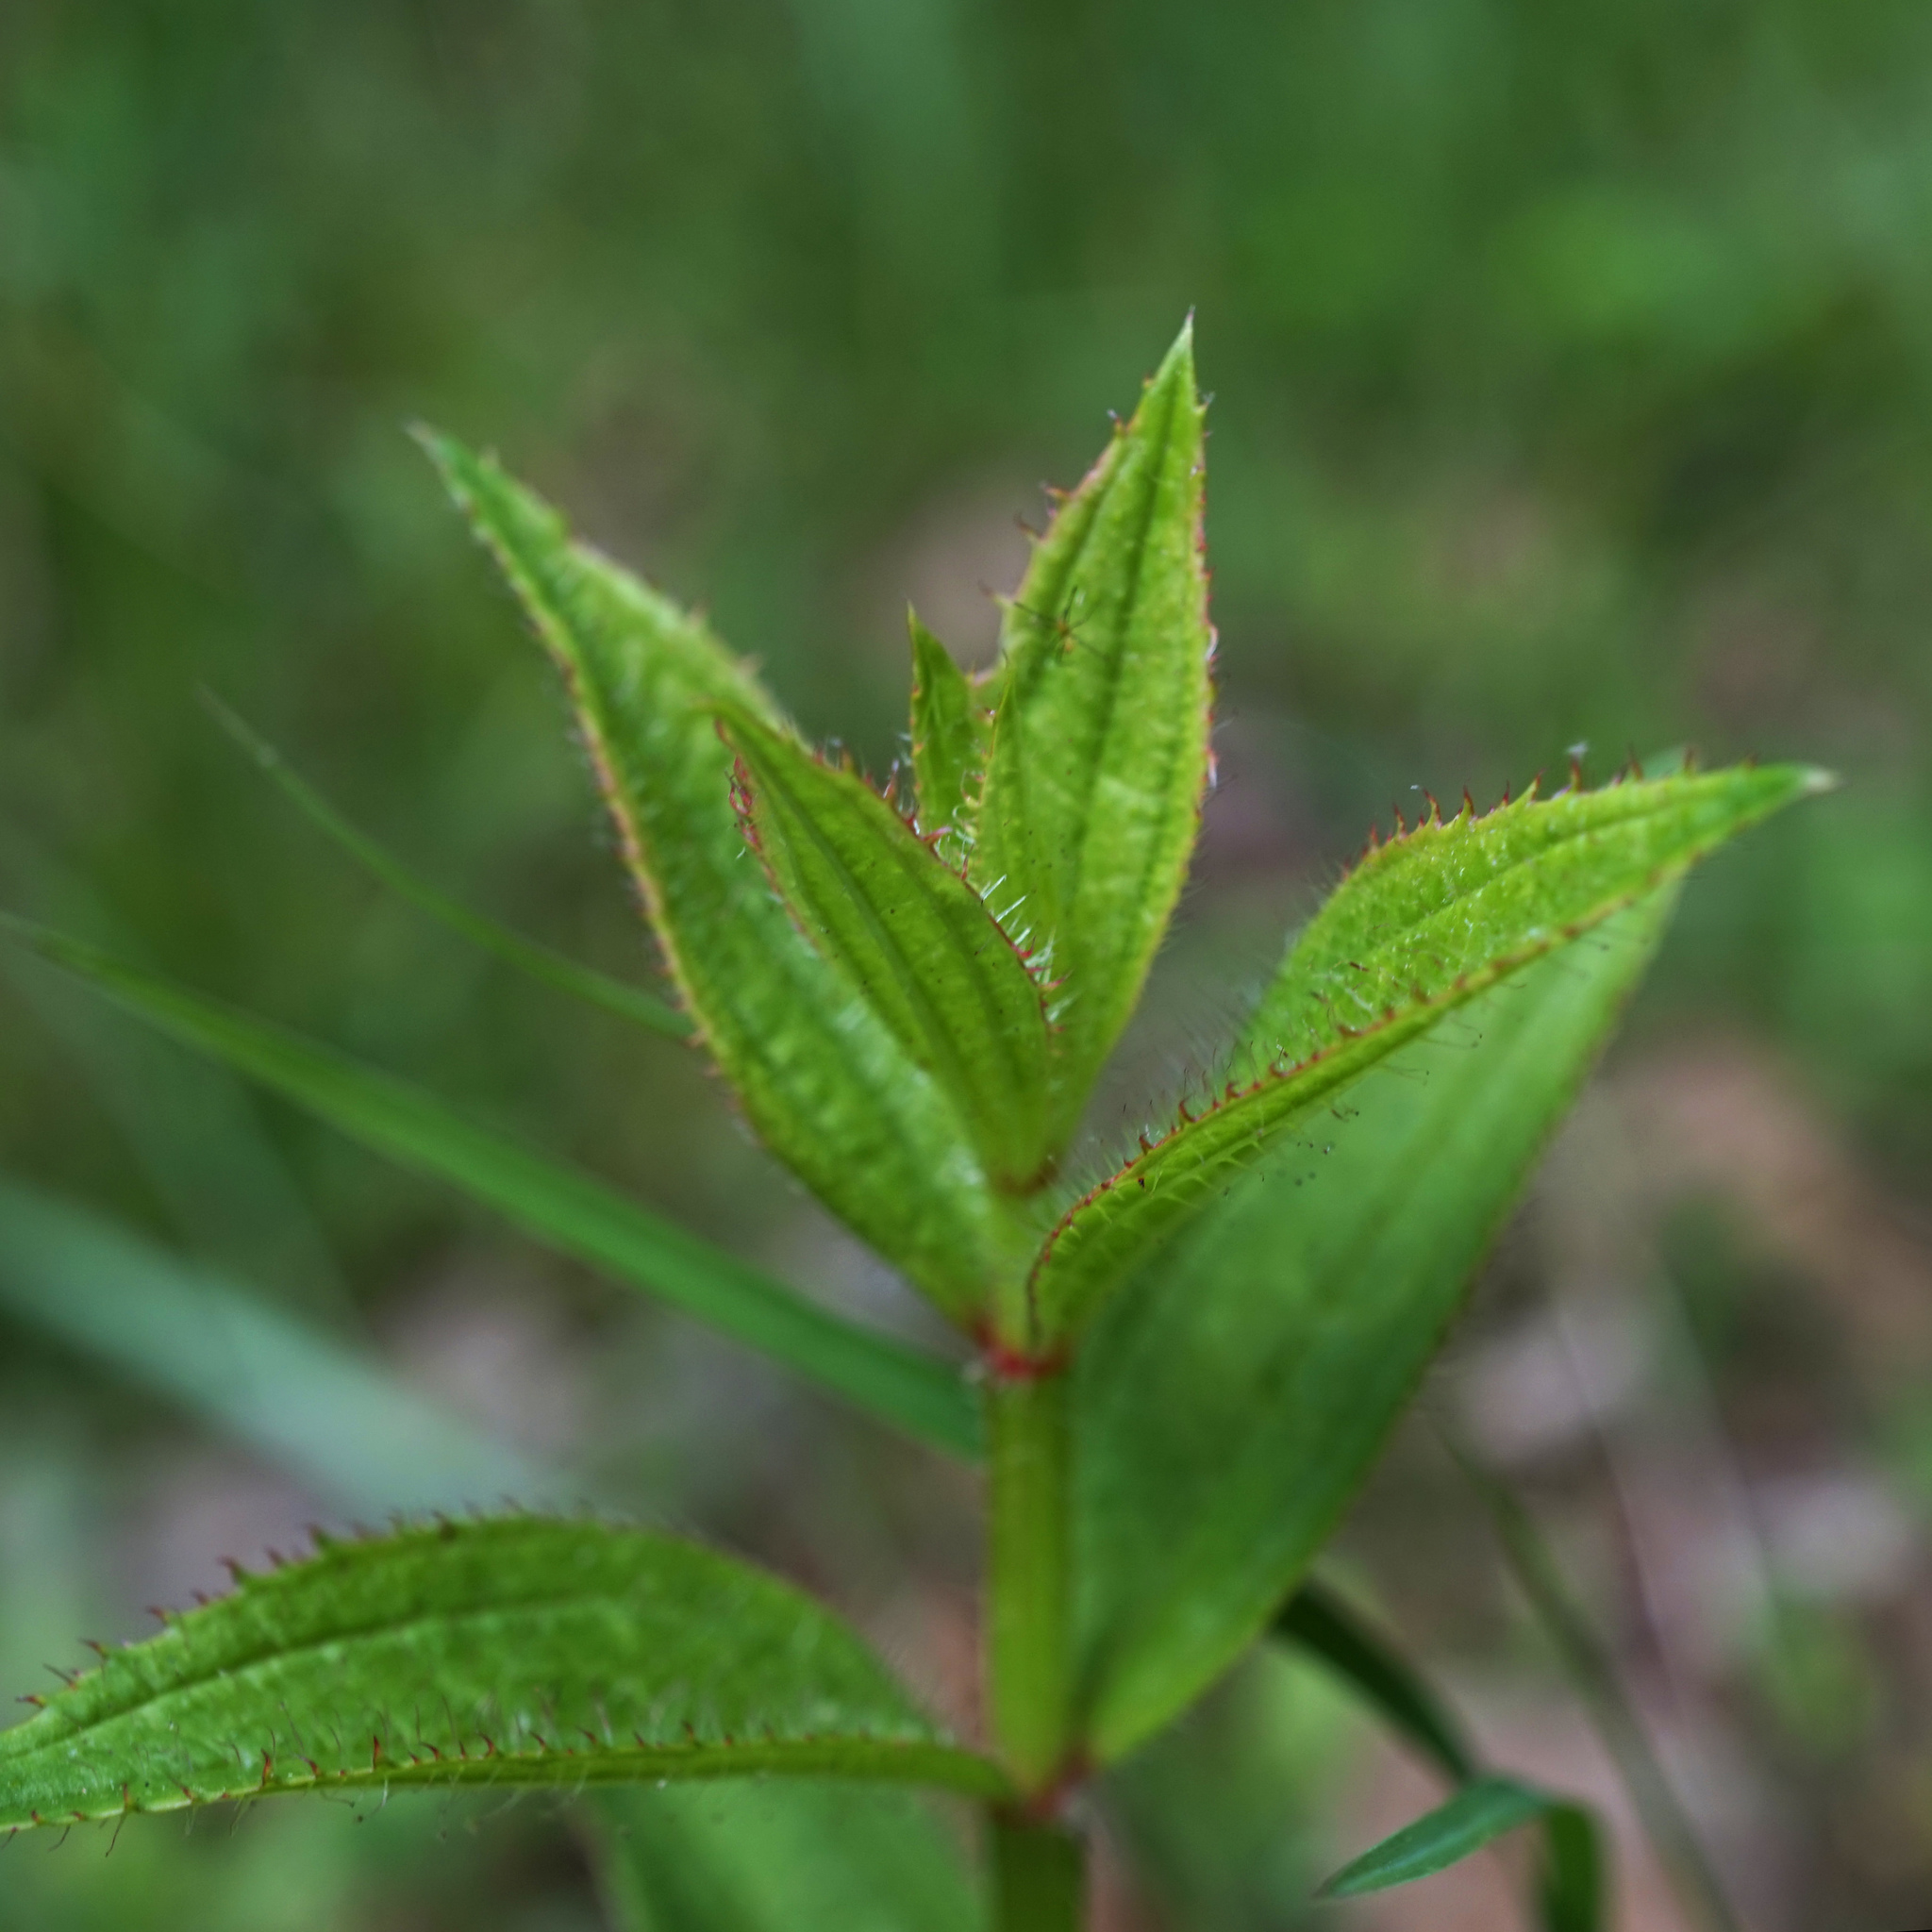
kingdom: Plantae
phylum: Tracheophyta
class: Magnoliopsida
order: Myrtales
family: Melastomataceae
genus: Rhexia
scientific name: Rhexia virginica
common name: Common meadow beauty
